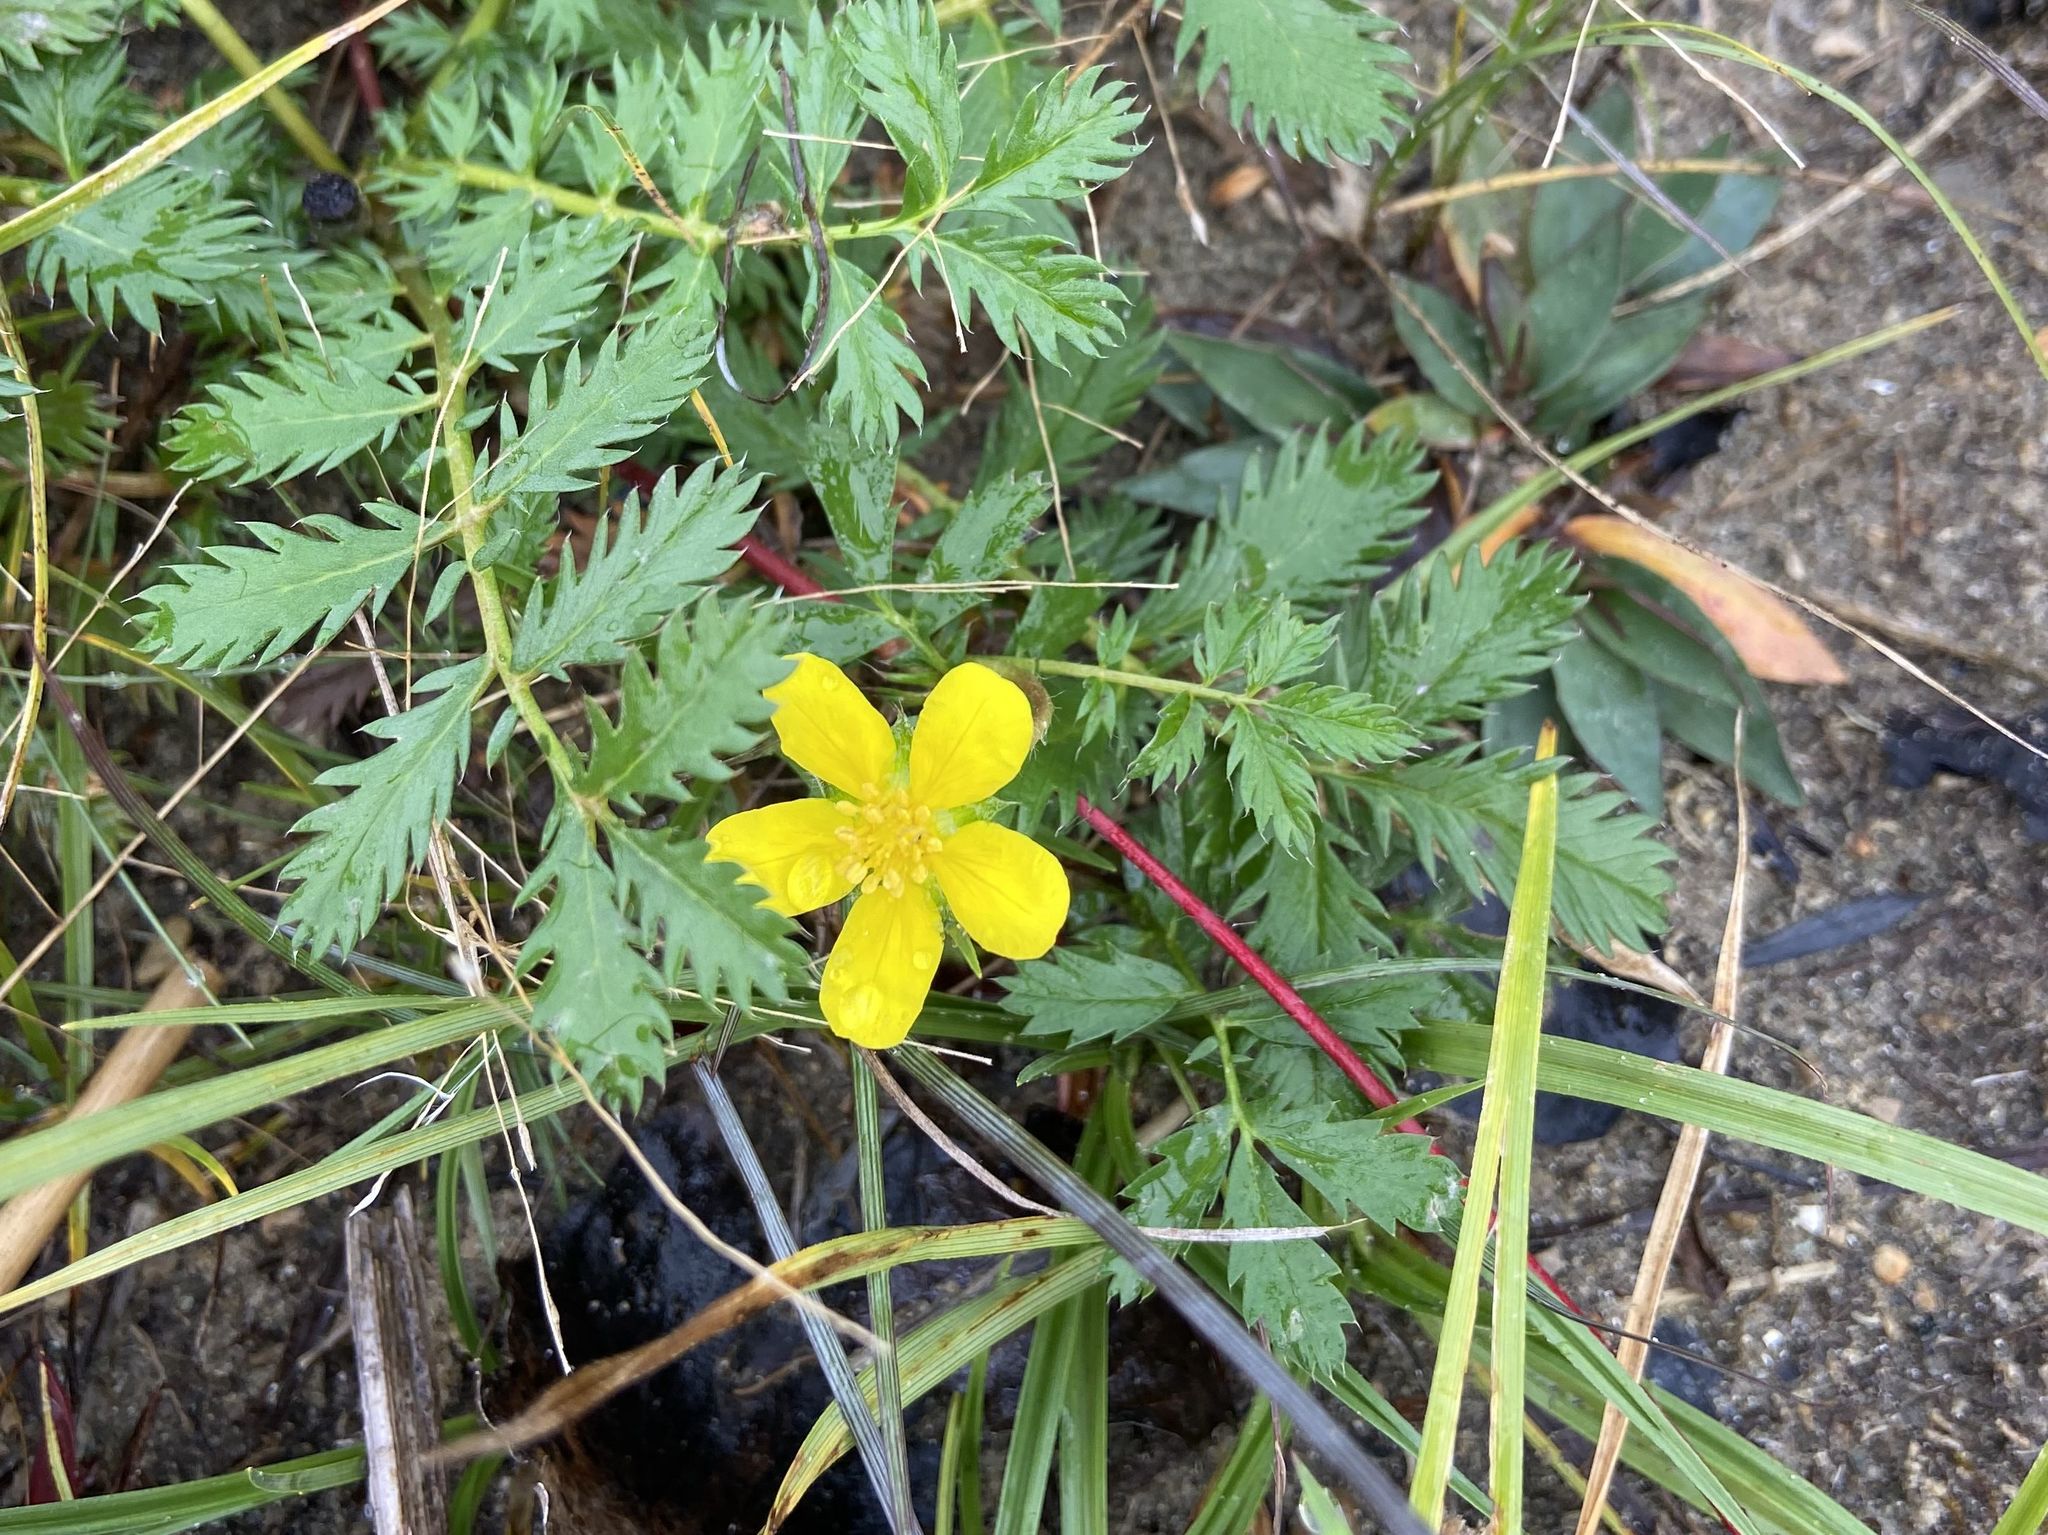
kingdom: Plantae
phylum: Tracheophyta
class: Magnoliopsida
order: Rosales
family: Rosaceae
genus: Argentina
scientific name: Argentina anserina
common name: Common silverweed
